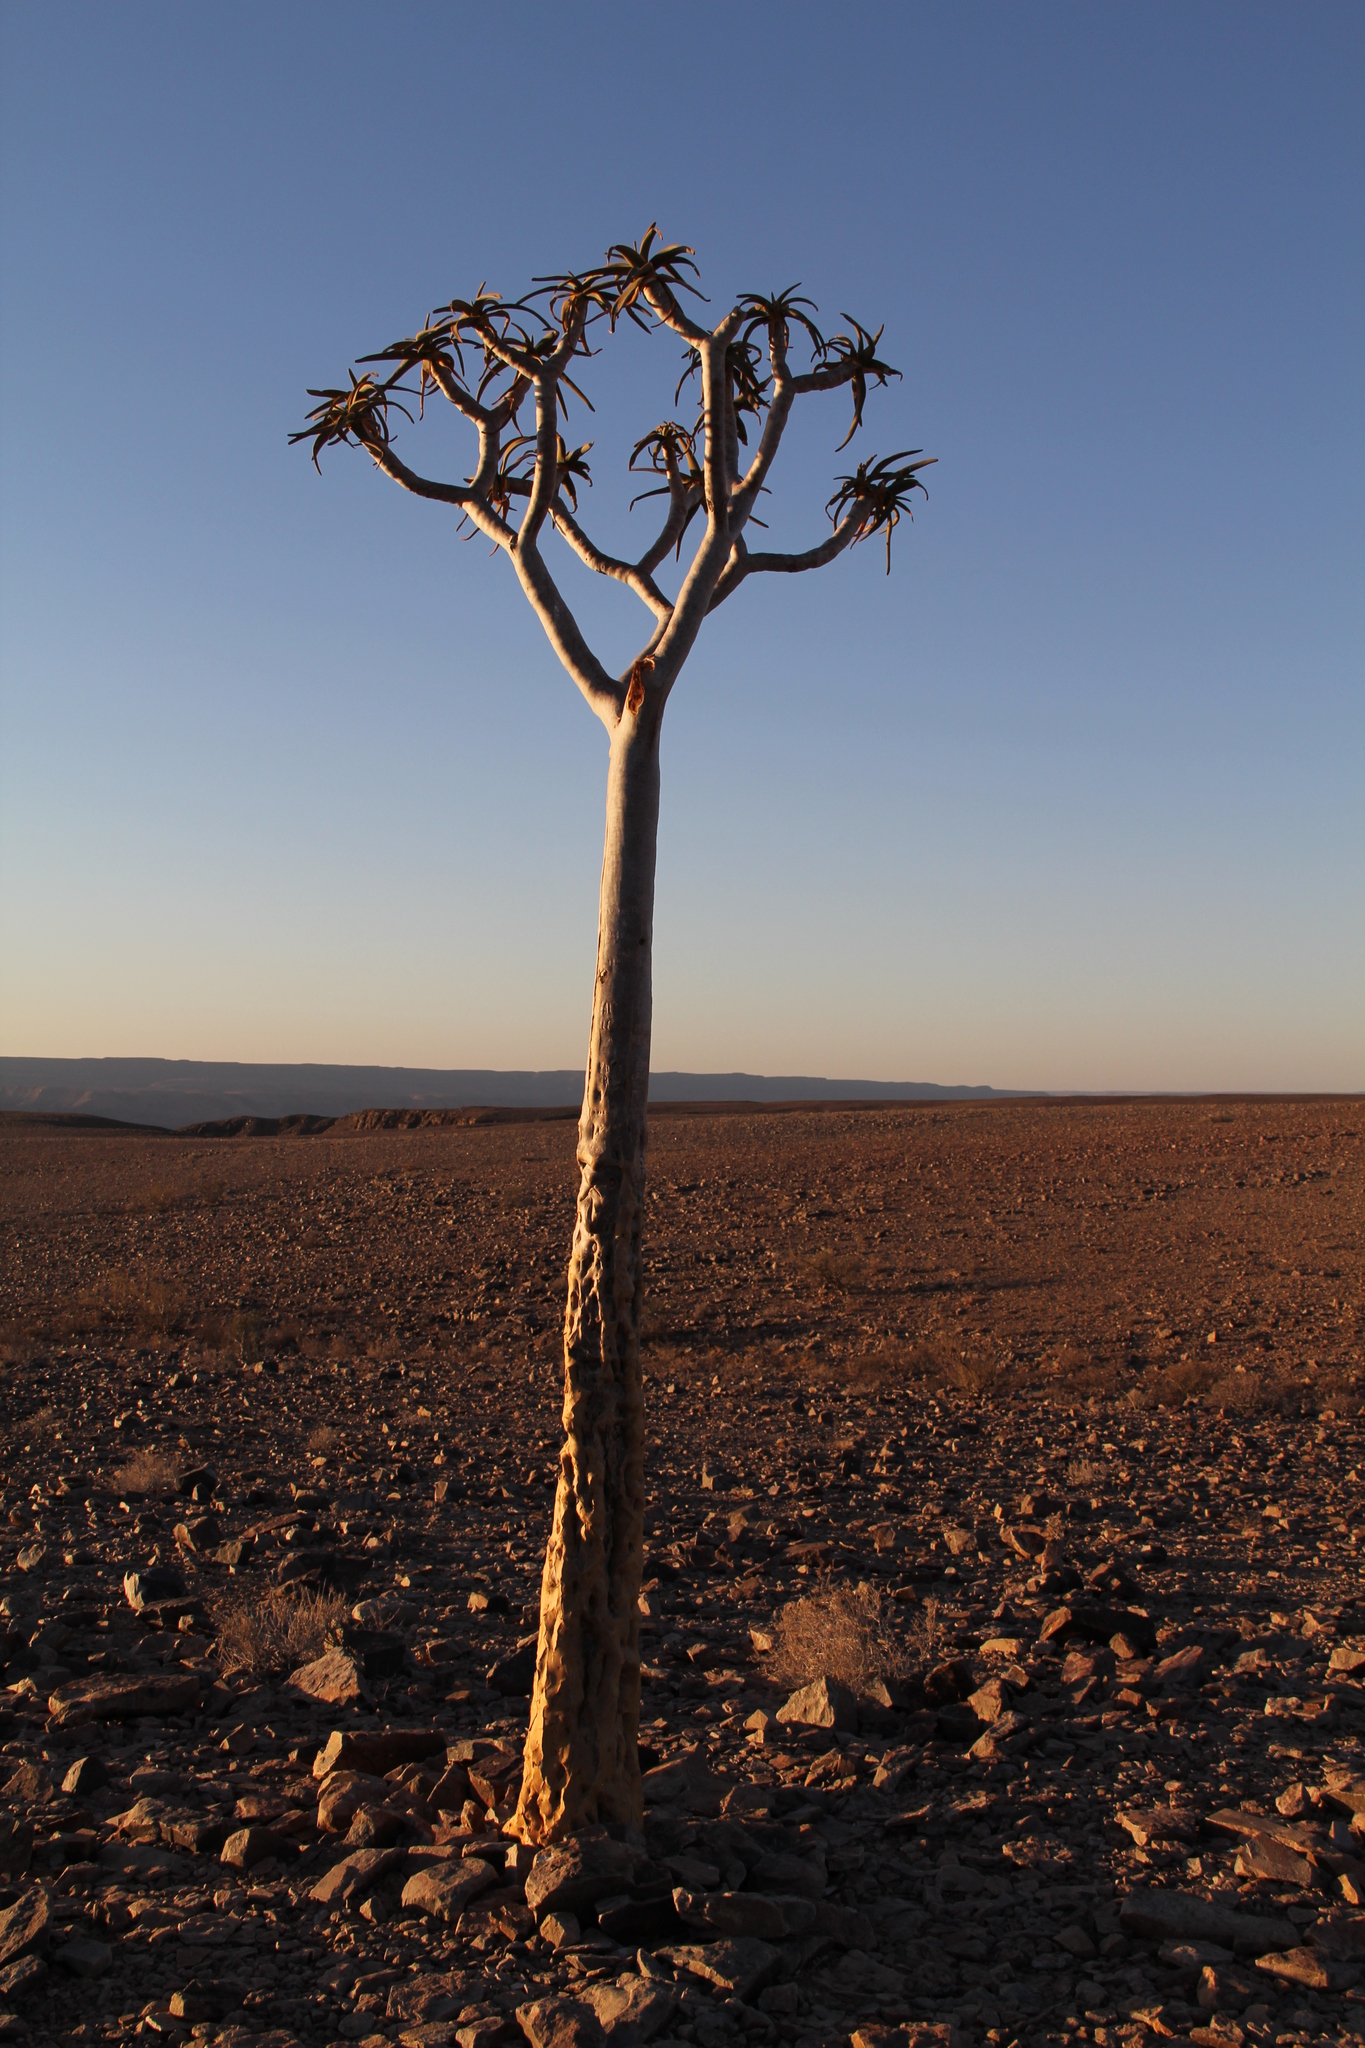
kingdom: Plantae
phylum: Tracheophyta
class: Liliopsida
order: Asparagales
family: Asphodelaceae
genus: Aloidendron
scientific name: Aloidendron dichotomum
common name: Quiver tree
